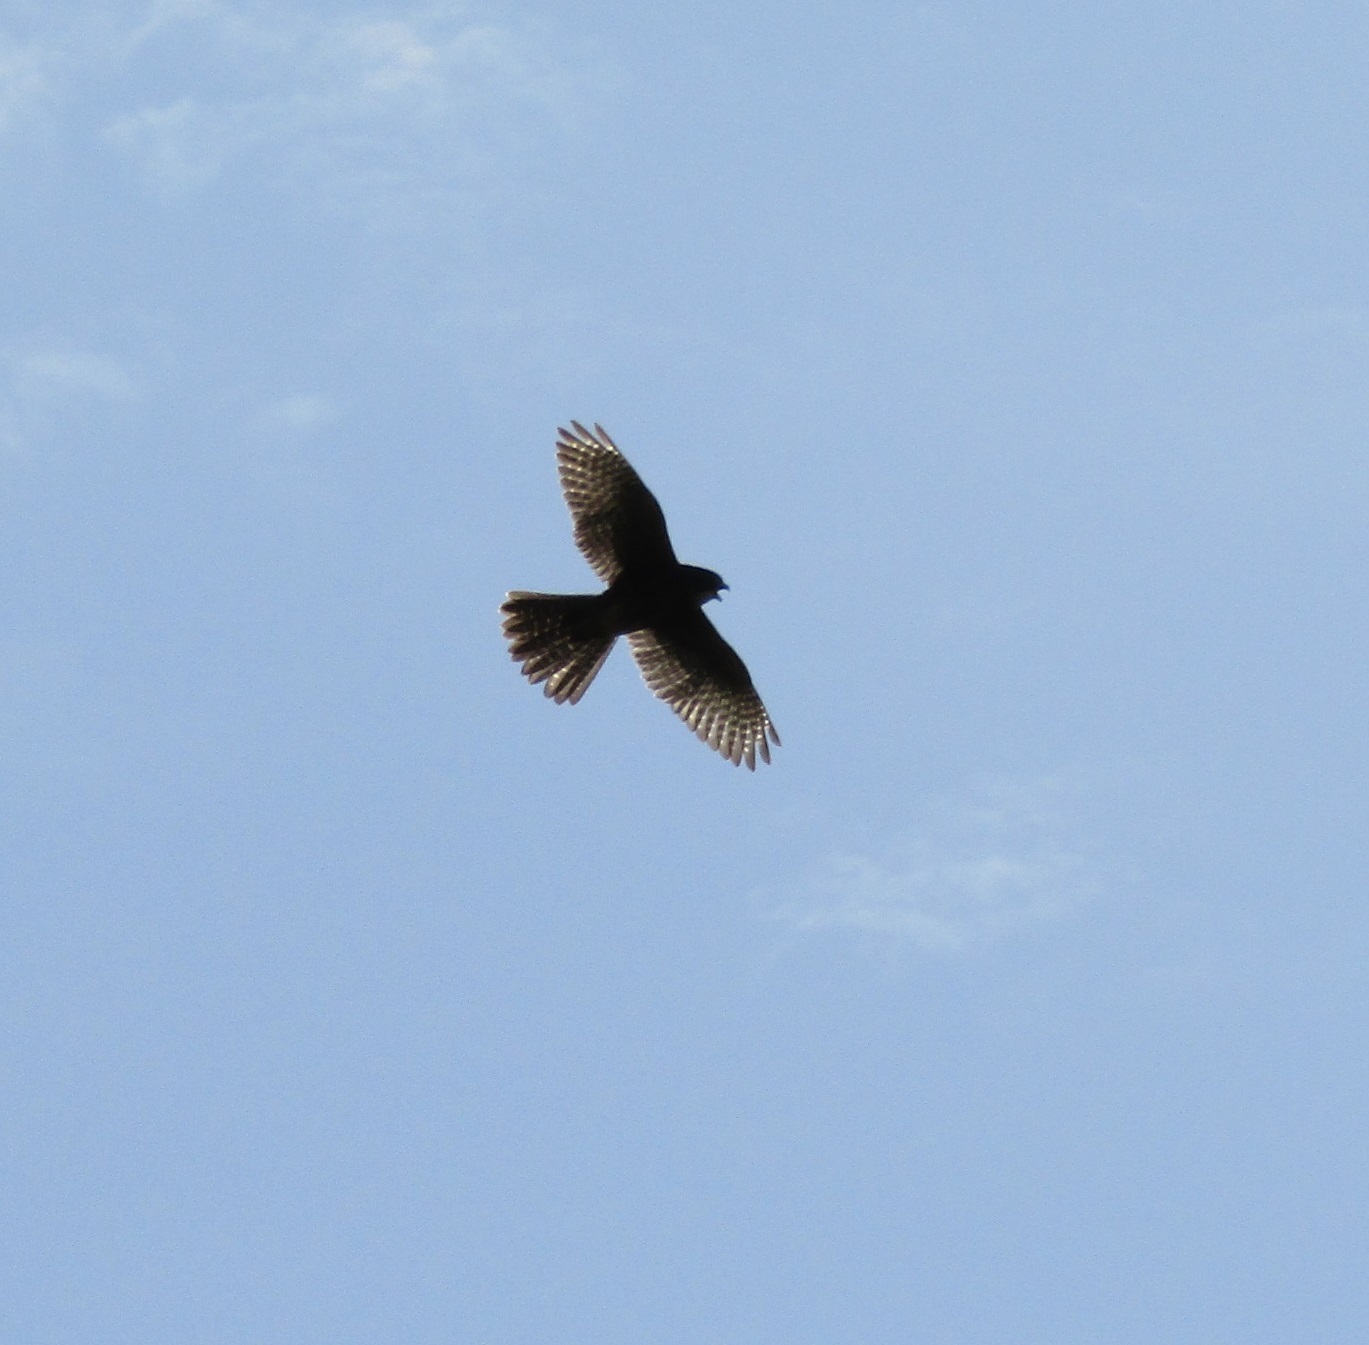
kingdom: Animalia
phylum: Chordata
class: Aves
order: Falconiformes
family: Falconidae
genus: Falco
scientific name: Falco novaeseelandiae
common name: New zealand falcon
